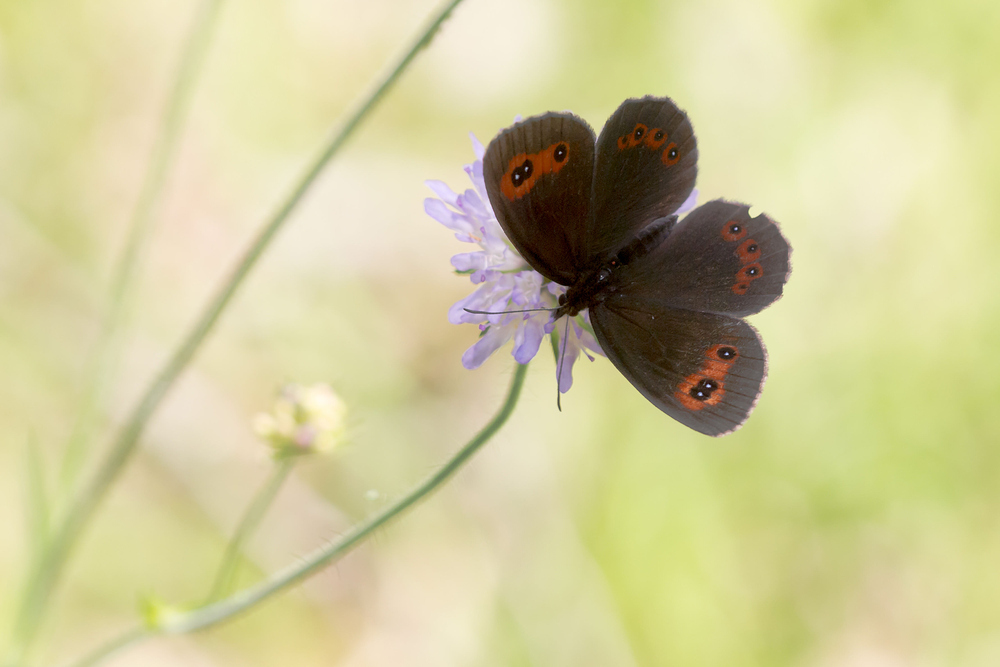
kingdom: Animalia
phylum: Arthropoda
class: Insecta
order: Lepidoptera
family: Nymphalidae
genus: Erebia
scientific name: Erebia aethiops
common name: Scotch argus
